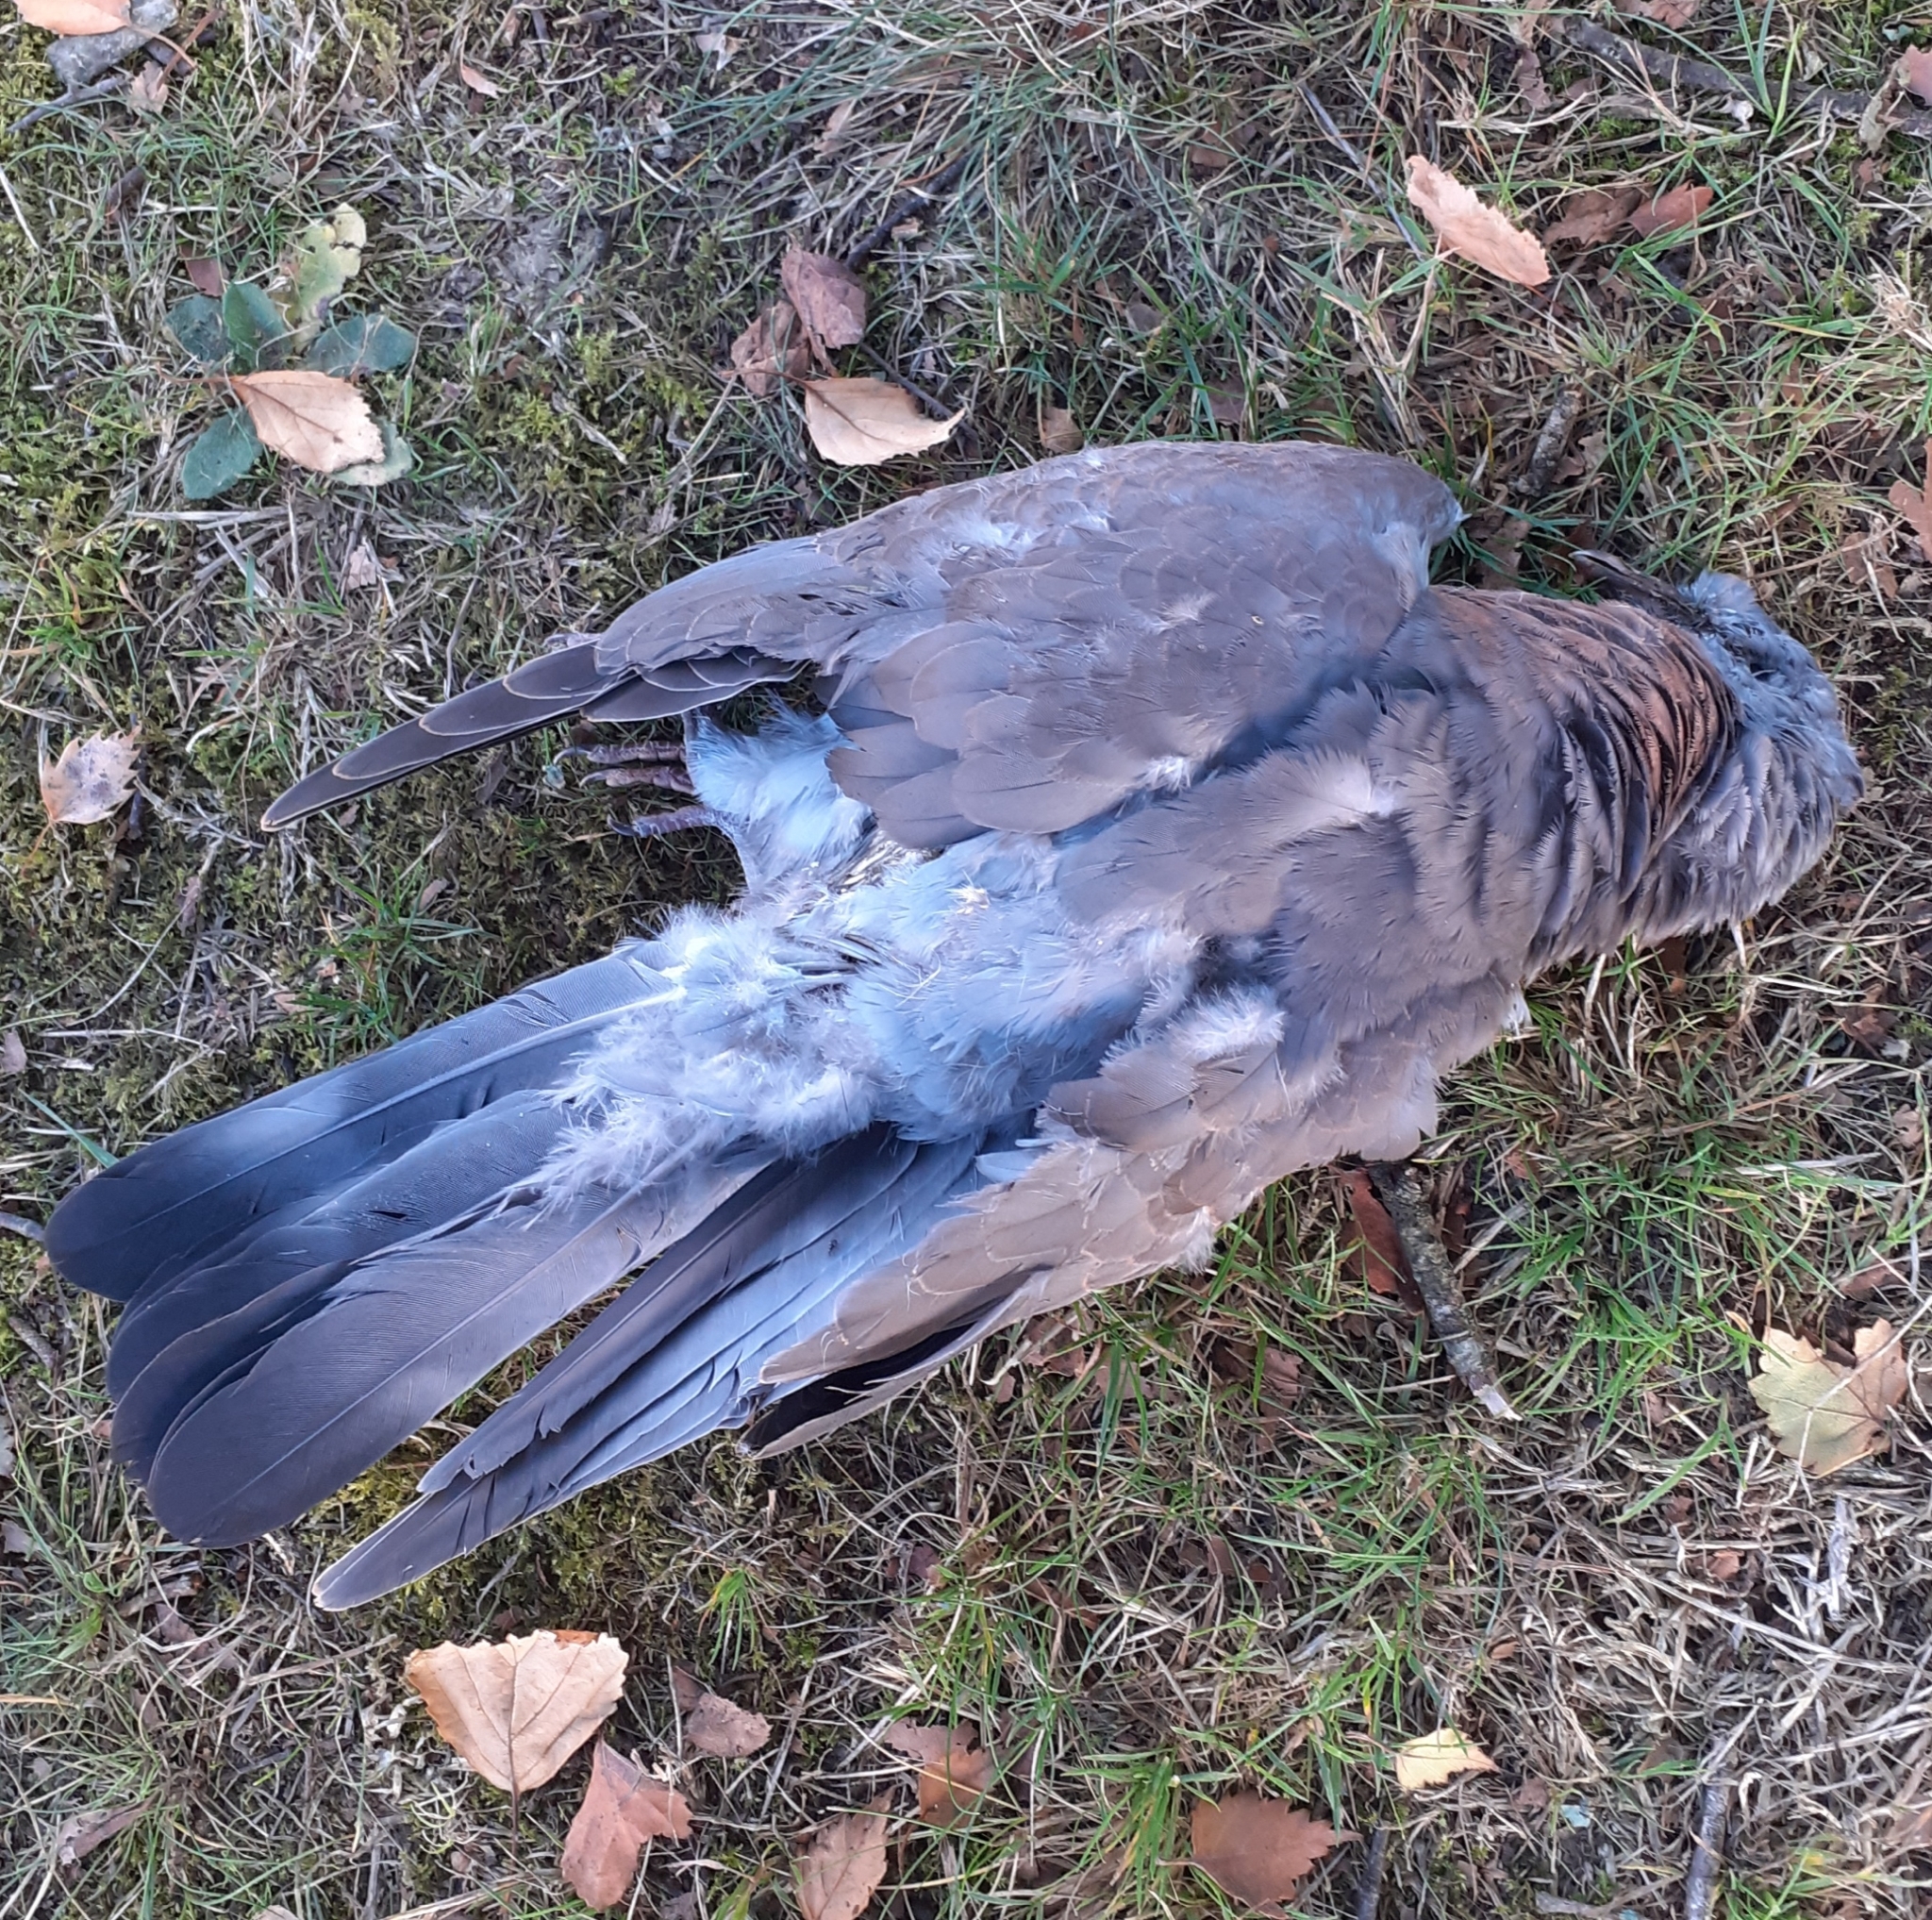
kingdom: Animalia
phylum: Chordata
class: Aves
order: Columbiformes
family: Columbidae
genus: Columba
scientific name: Columba palumbus
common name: Common wood pigeon
